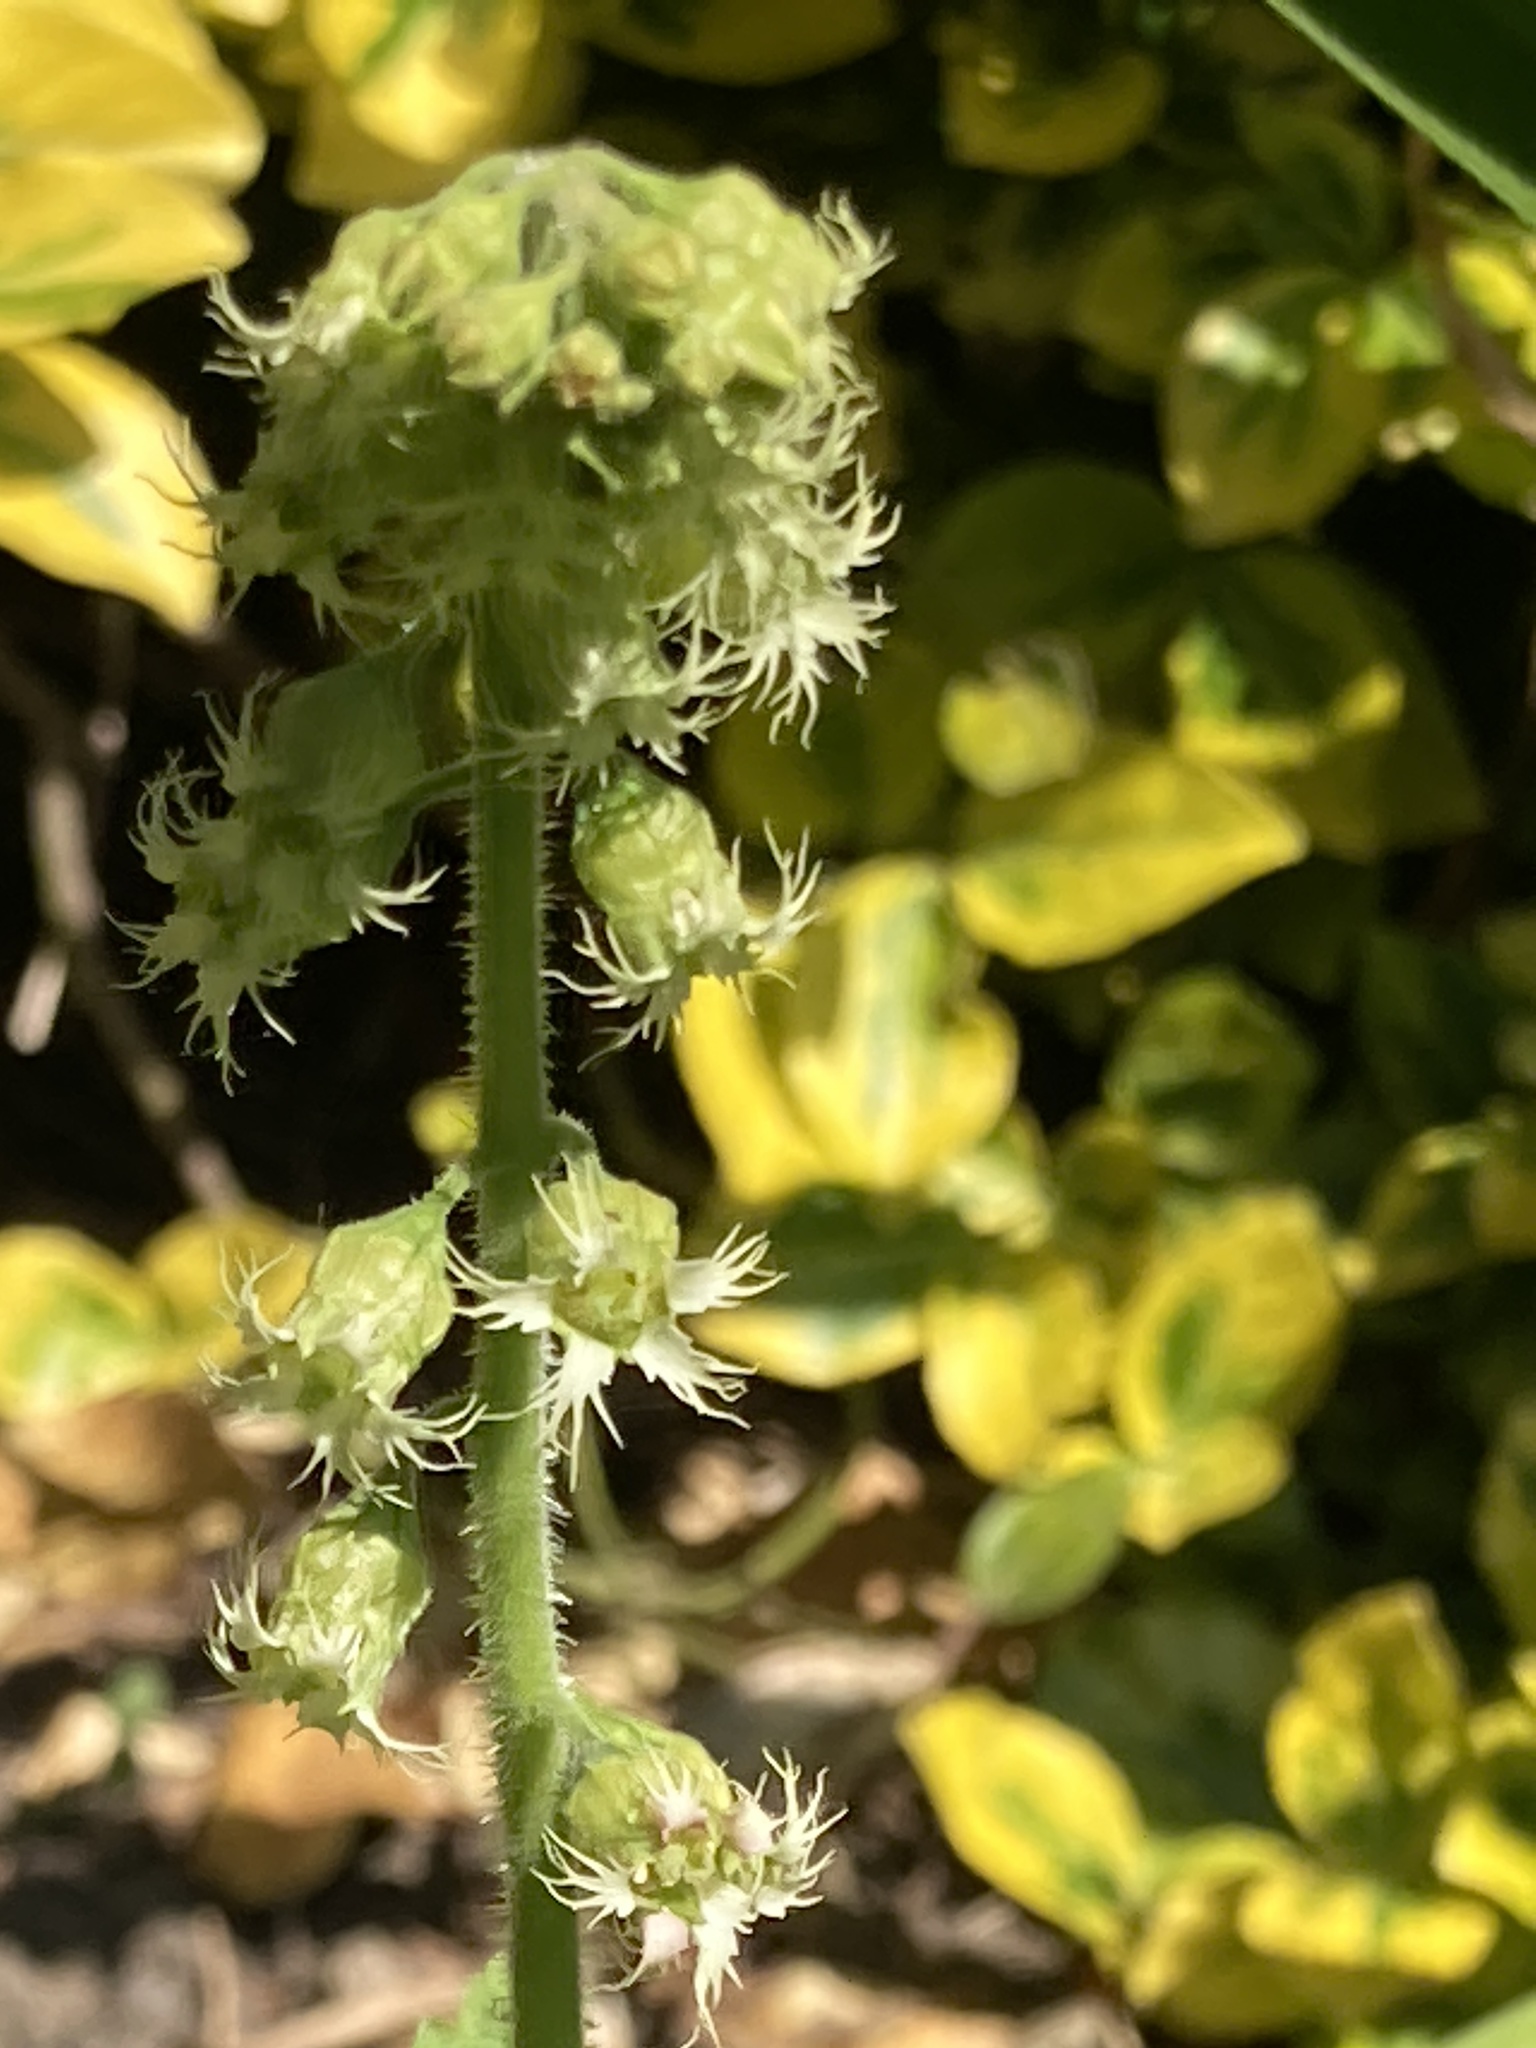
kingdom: Plantae
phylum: Tracheophyta
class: Magnoliopsida
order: Saxifragales
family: Saxifragaceae
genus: Tellima
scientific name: Tellima grandiflora
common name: Fringecups
